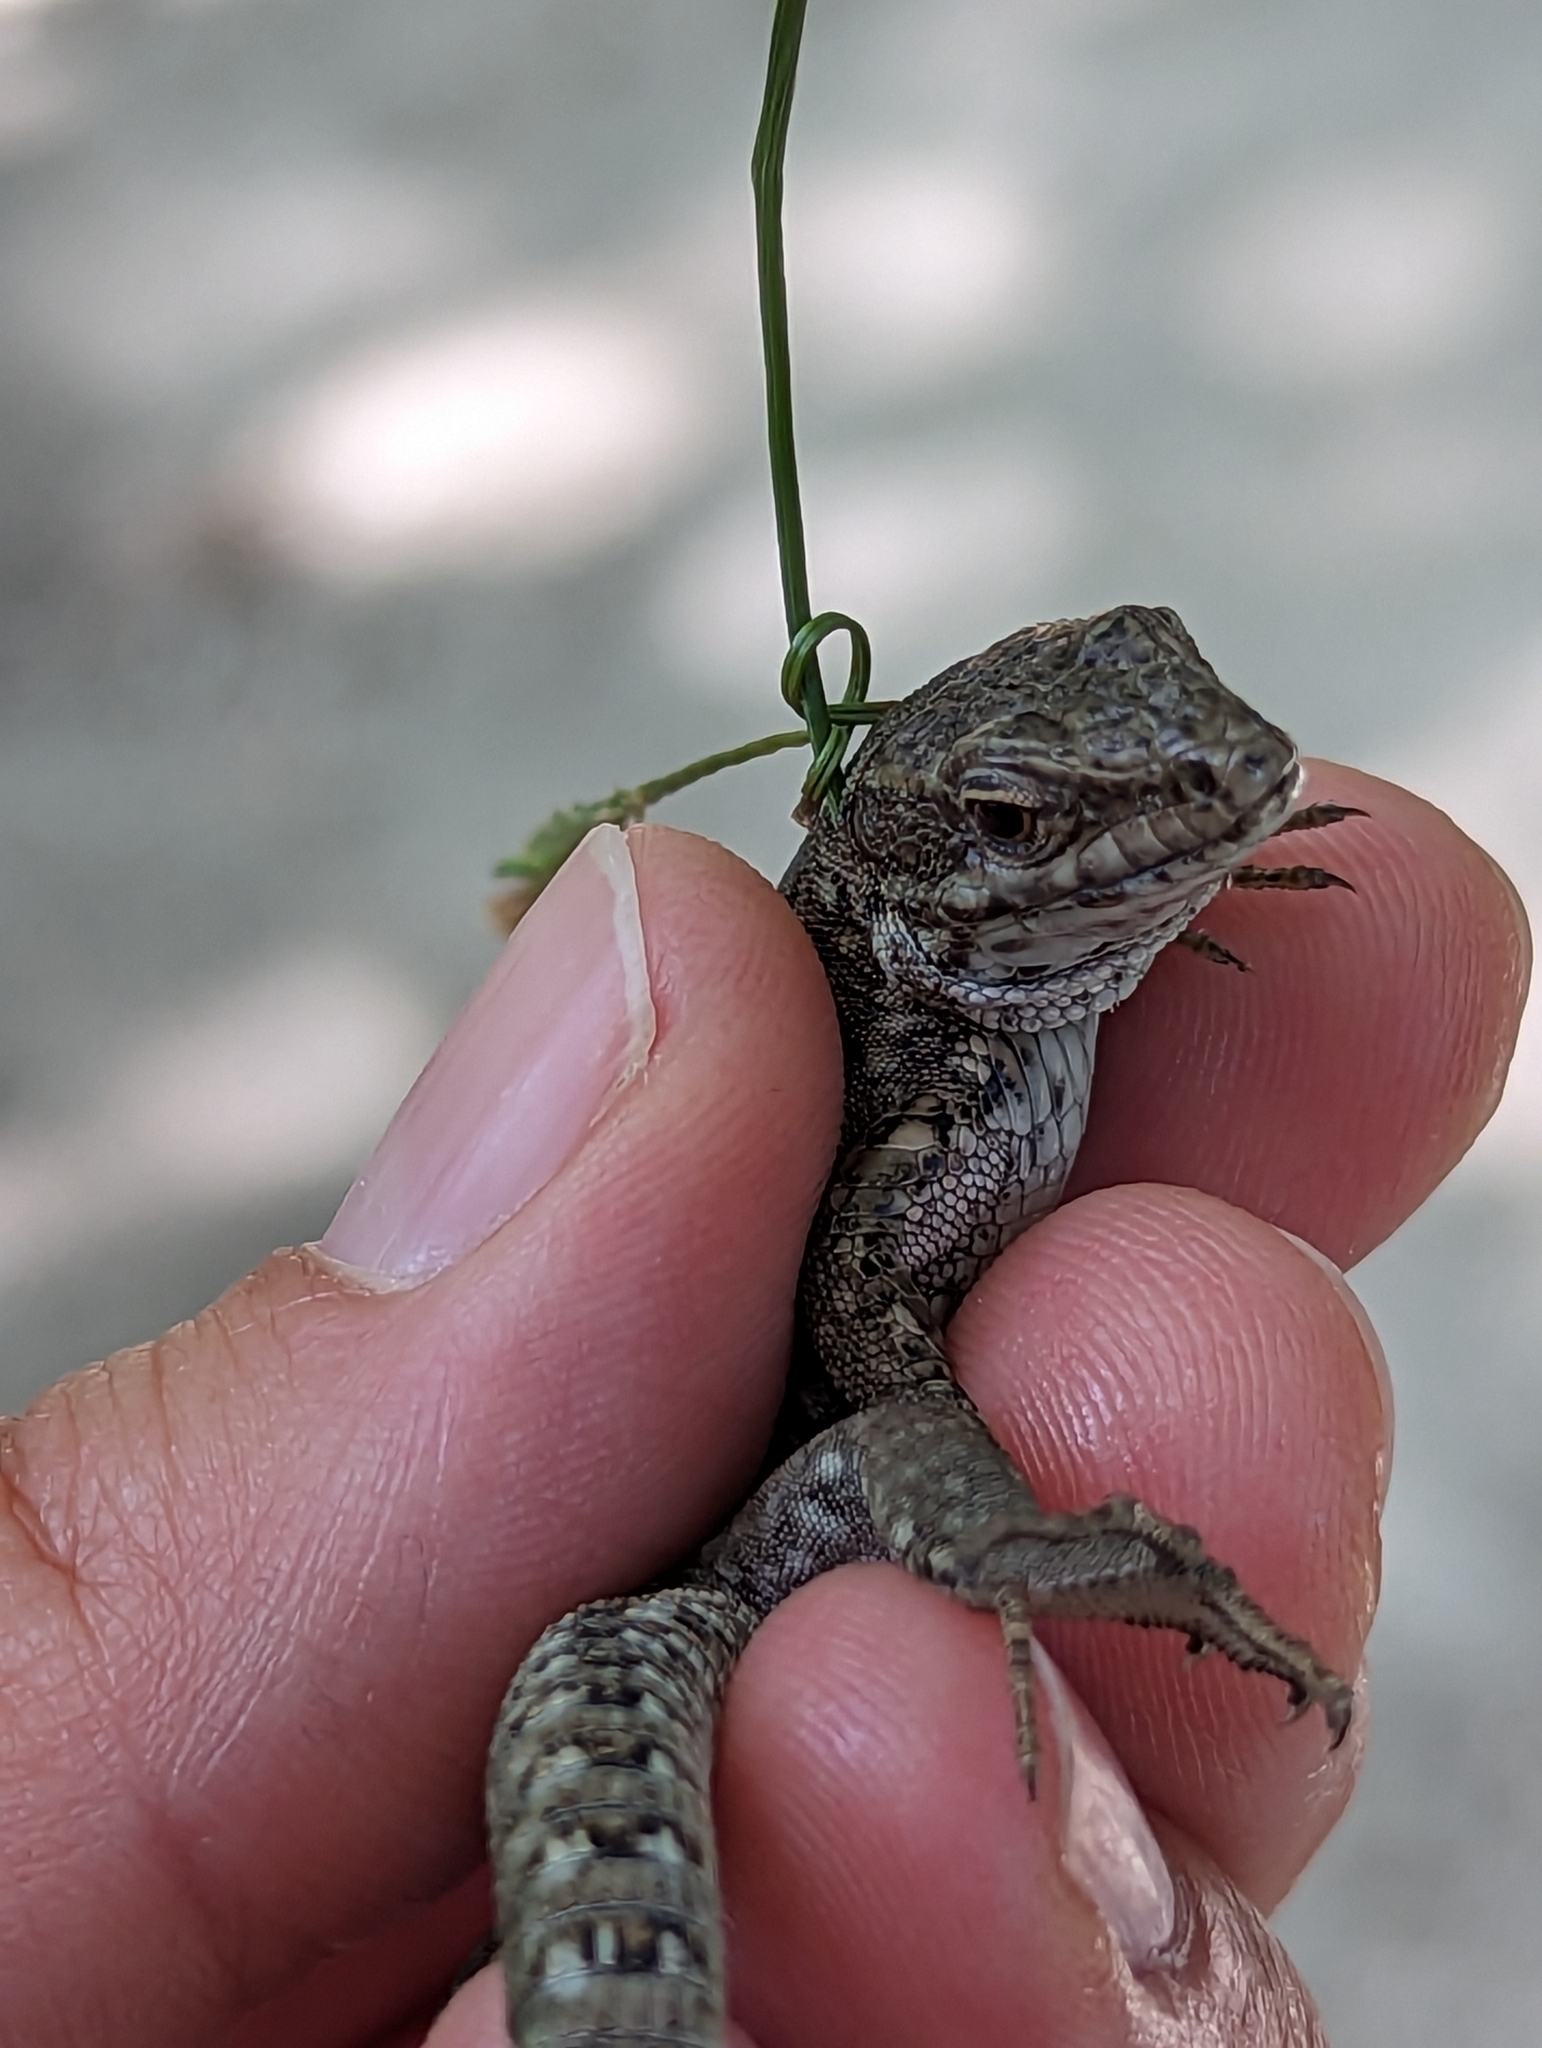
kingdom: Animalia
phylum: Chordata
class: Squamata
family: Lacertidae
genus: Podarcis
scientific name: Podarcis muralis
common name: Common wall lizard
